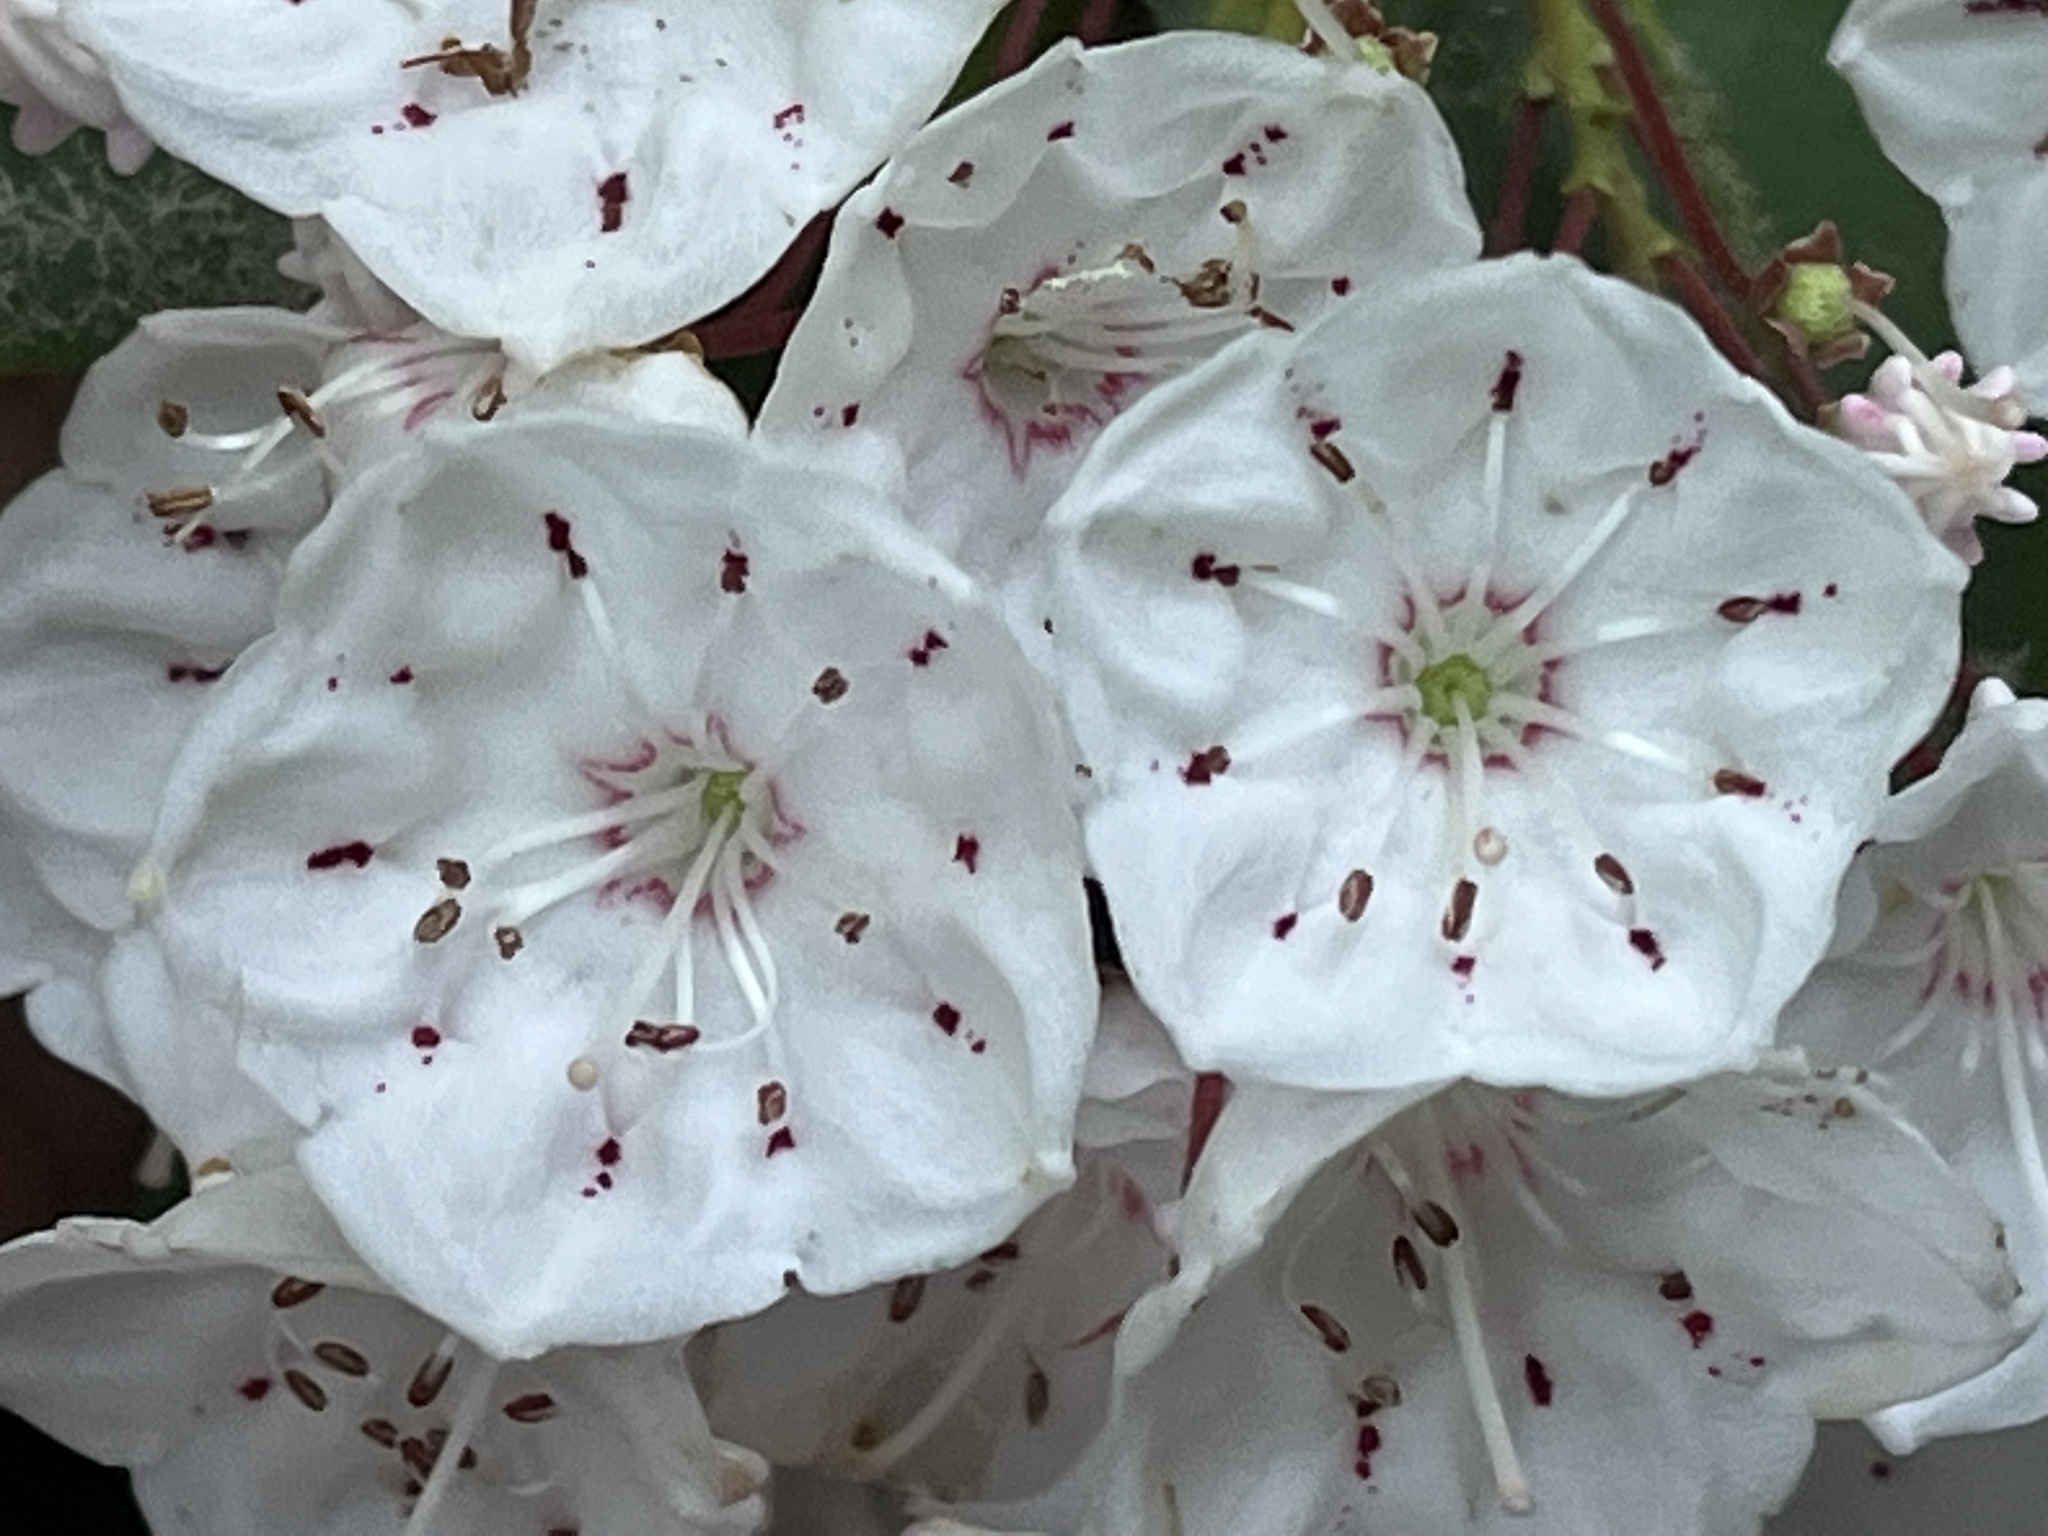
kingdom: Plantae
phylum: Tracheophyta
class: Magnoliopsida
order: Ericales
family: Ericaceae
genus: Kalmia
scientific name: Kalmia latifolia
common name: Mountain-laurel
